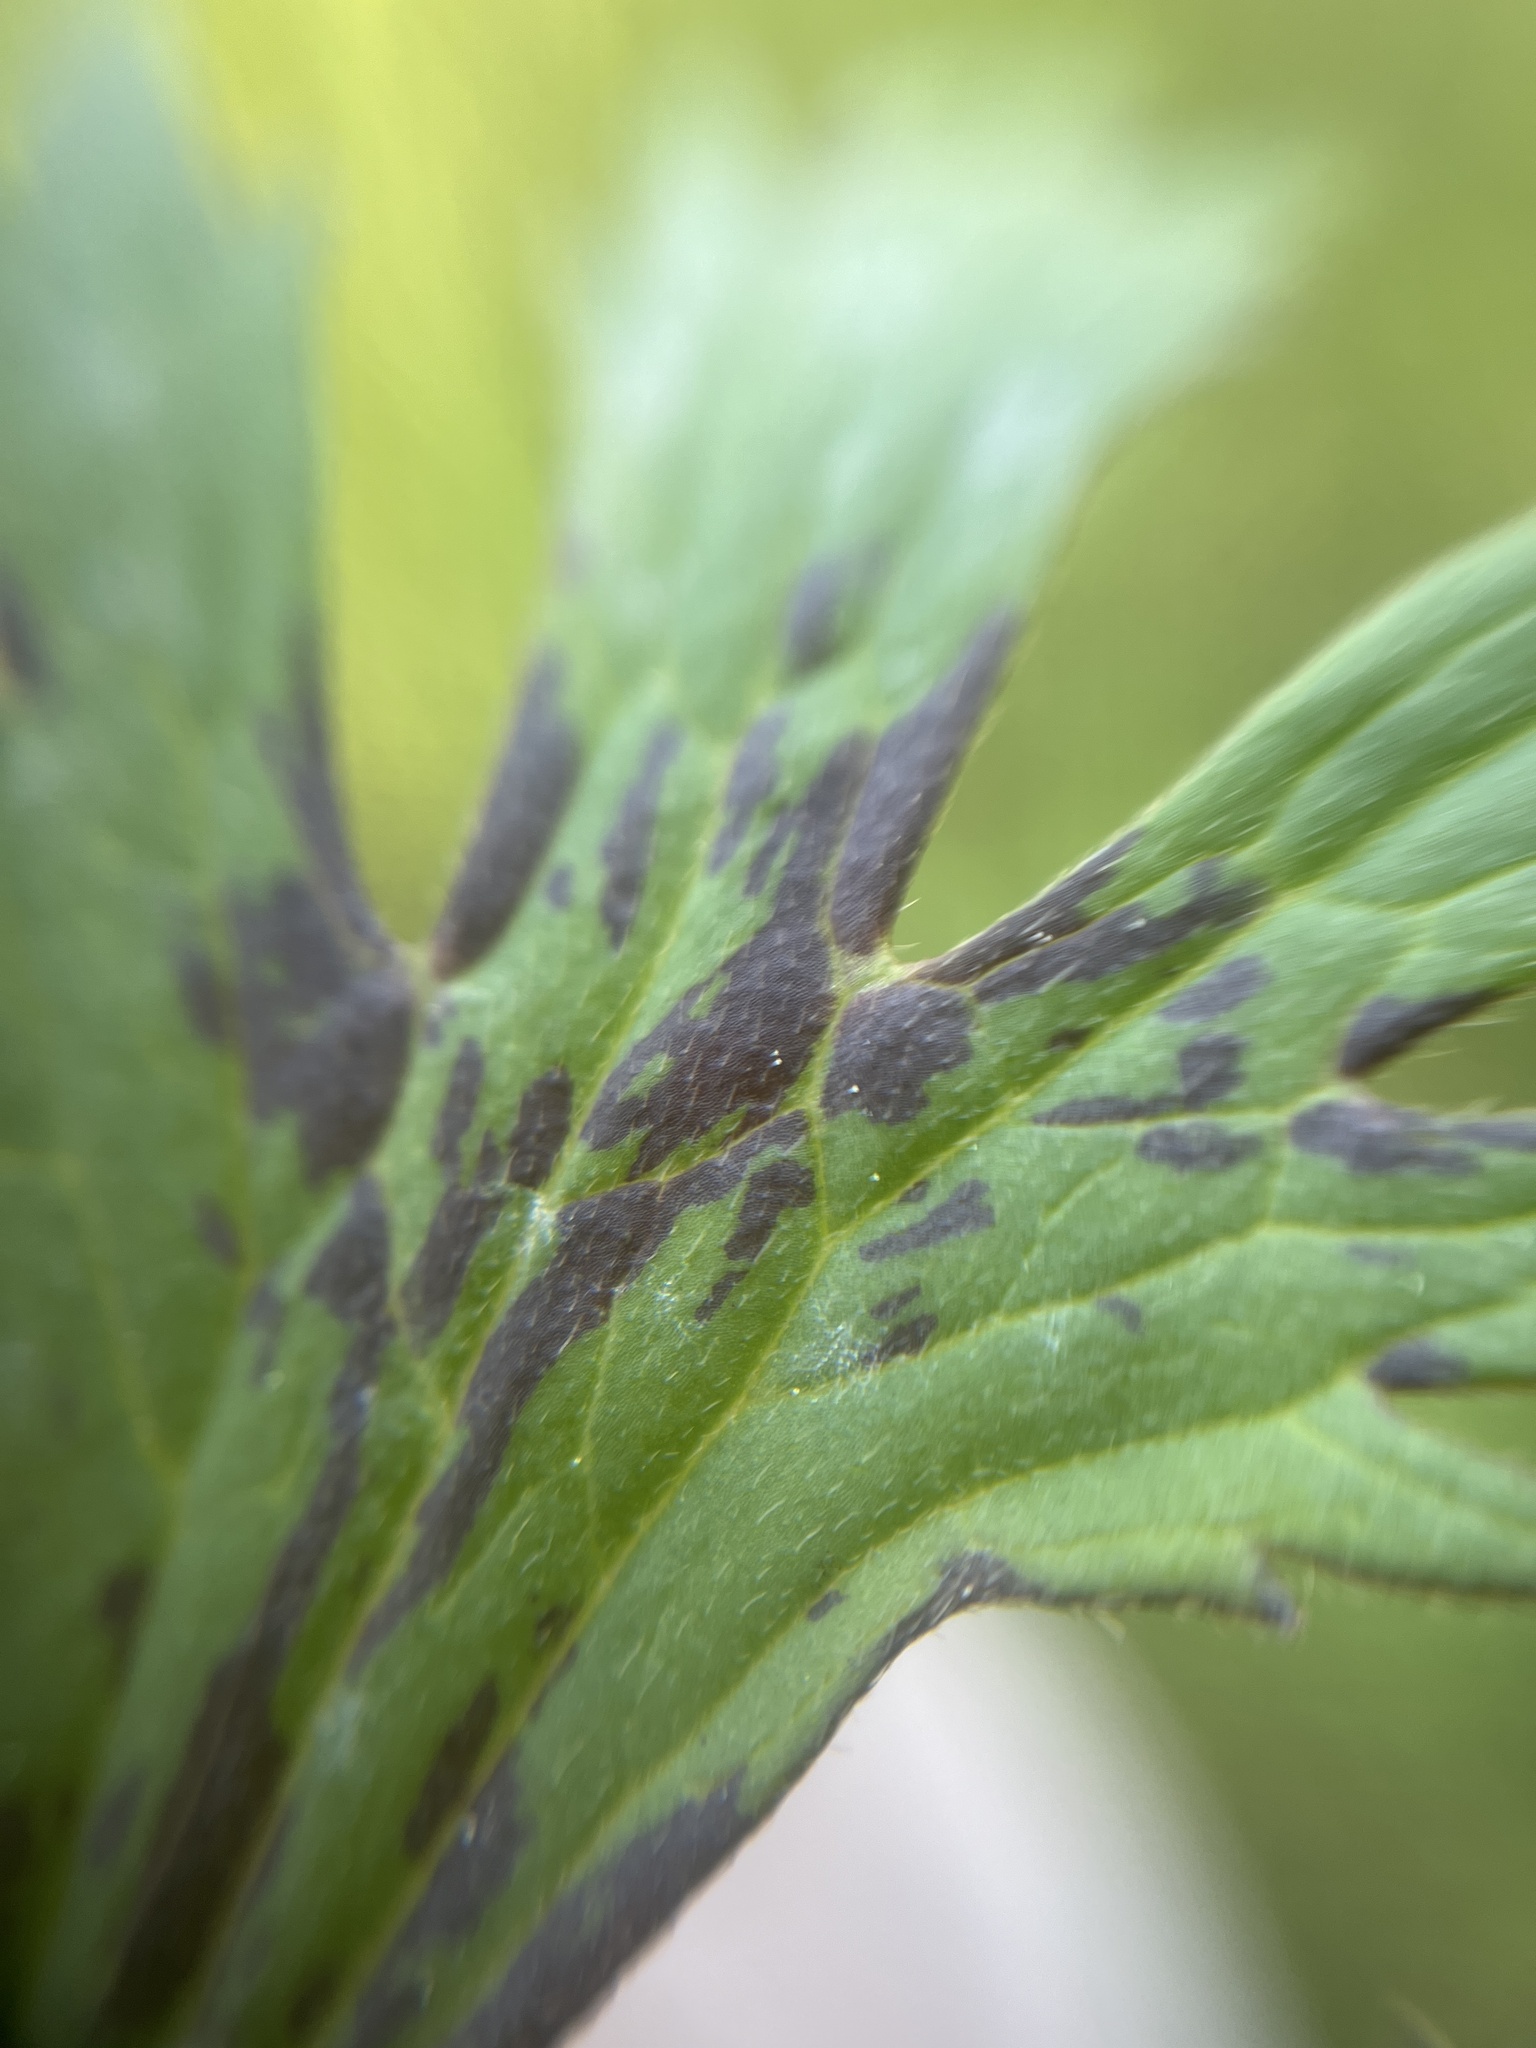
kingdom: Plantae
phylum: Tracheophyta
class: Magnoliopsida
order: Ranunculales
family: Ranunculaceae
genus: Ranunculus
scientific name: Ranunculus acris
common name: Meadow buttercup
